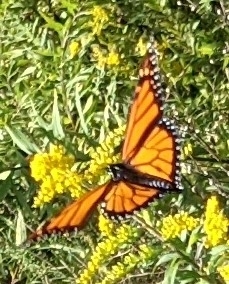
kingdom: Animalia
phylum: Arthropoda
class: Insecta
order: Lepidoptera
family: Nymphalidae
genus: Danaus
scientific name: Danaus plexippus
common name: Monarch
